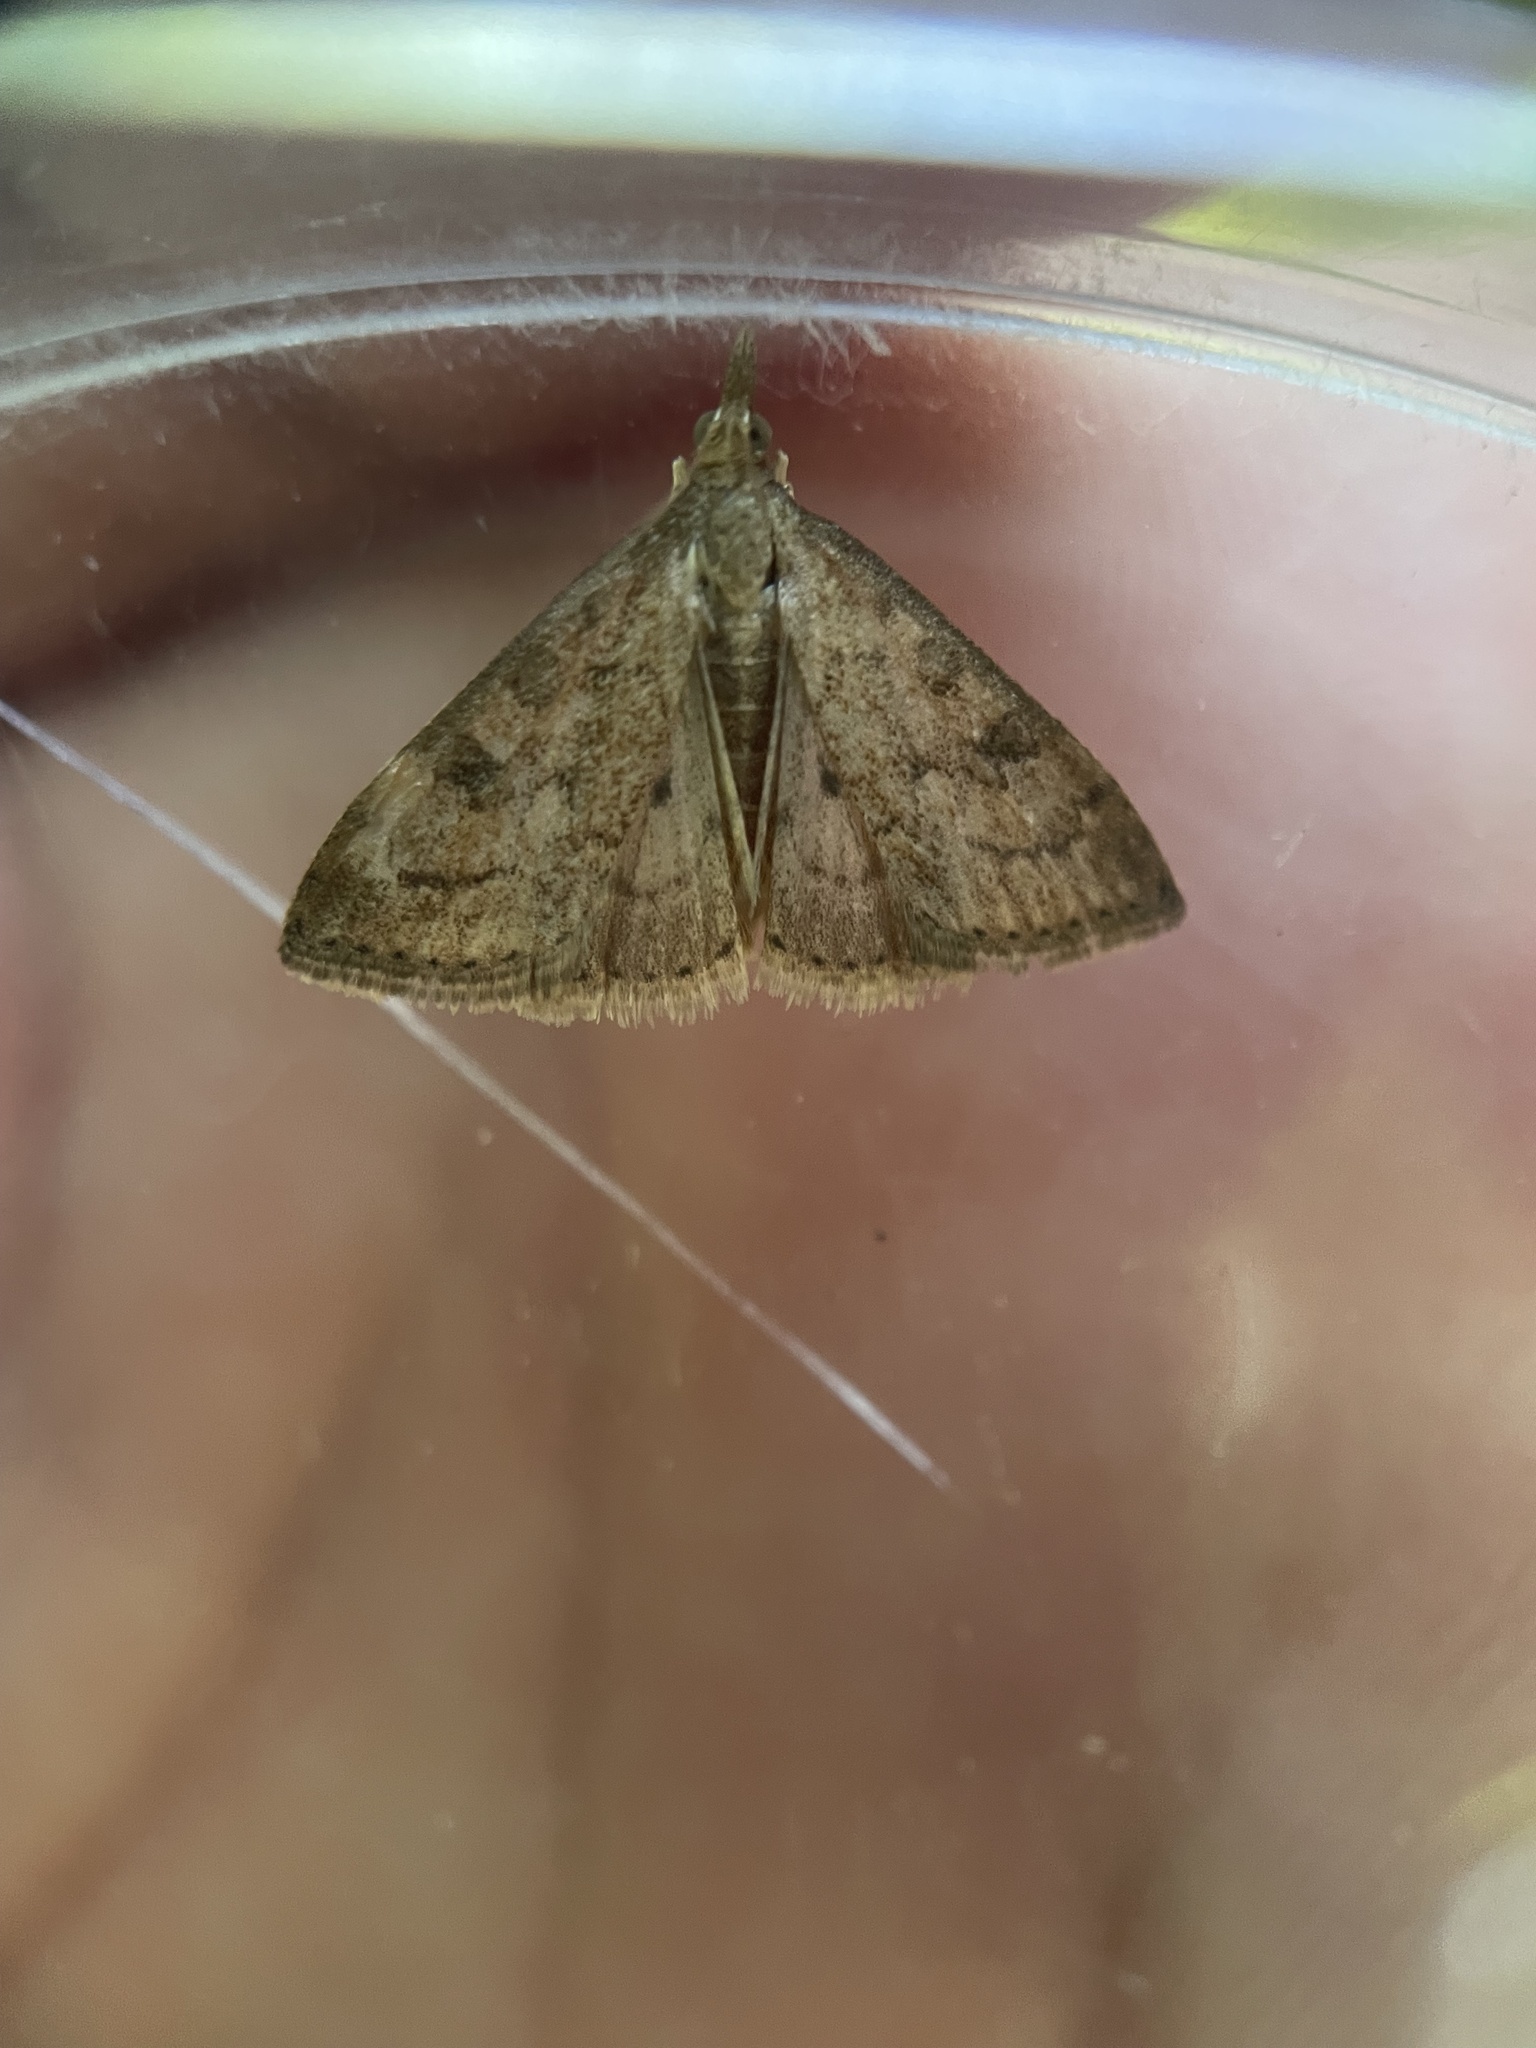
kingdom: Animalia
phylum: Arthropoda
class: Insecta
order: Lepidoptera
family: Crambidae
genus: Udea
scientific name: Udea rubigalis
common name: Celery leaftier moth
